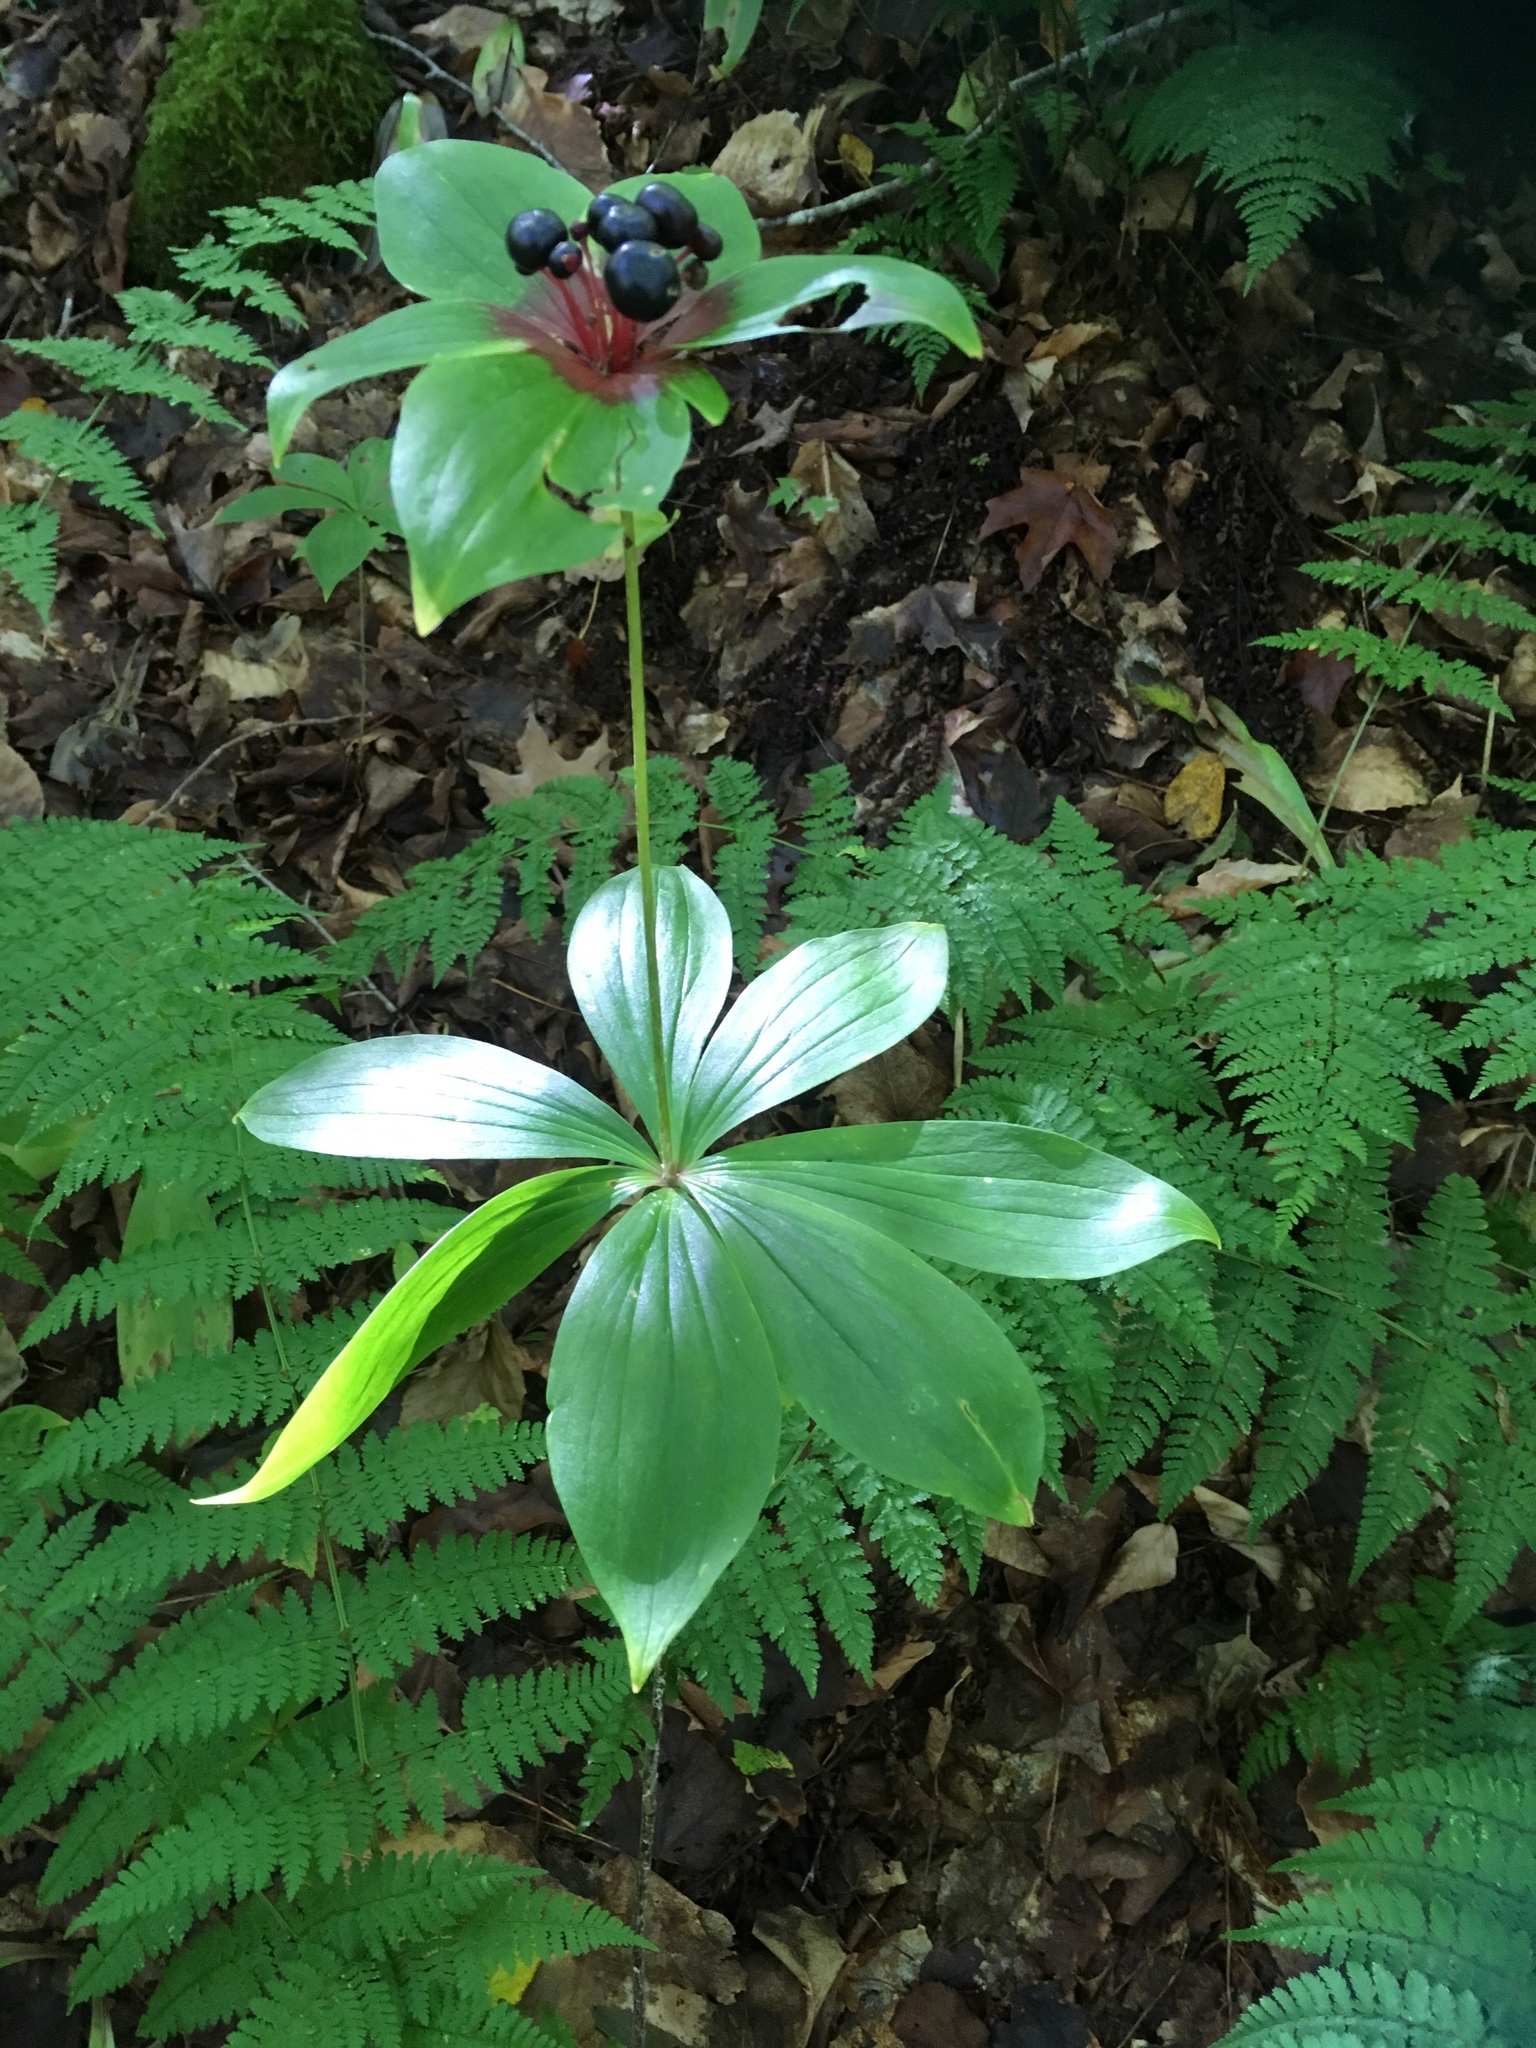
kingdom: Plantae
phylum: Tracheophyta
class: Liliopsida
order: Liliales
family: Liliaceae
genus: Medeola
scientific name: Medeola virginiana
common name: Indian cucumber-root
